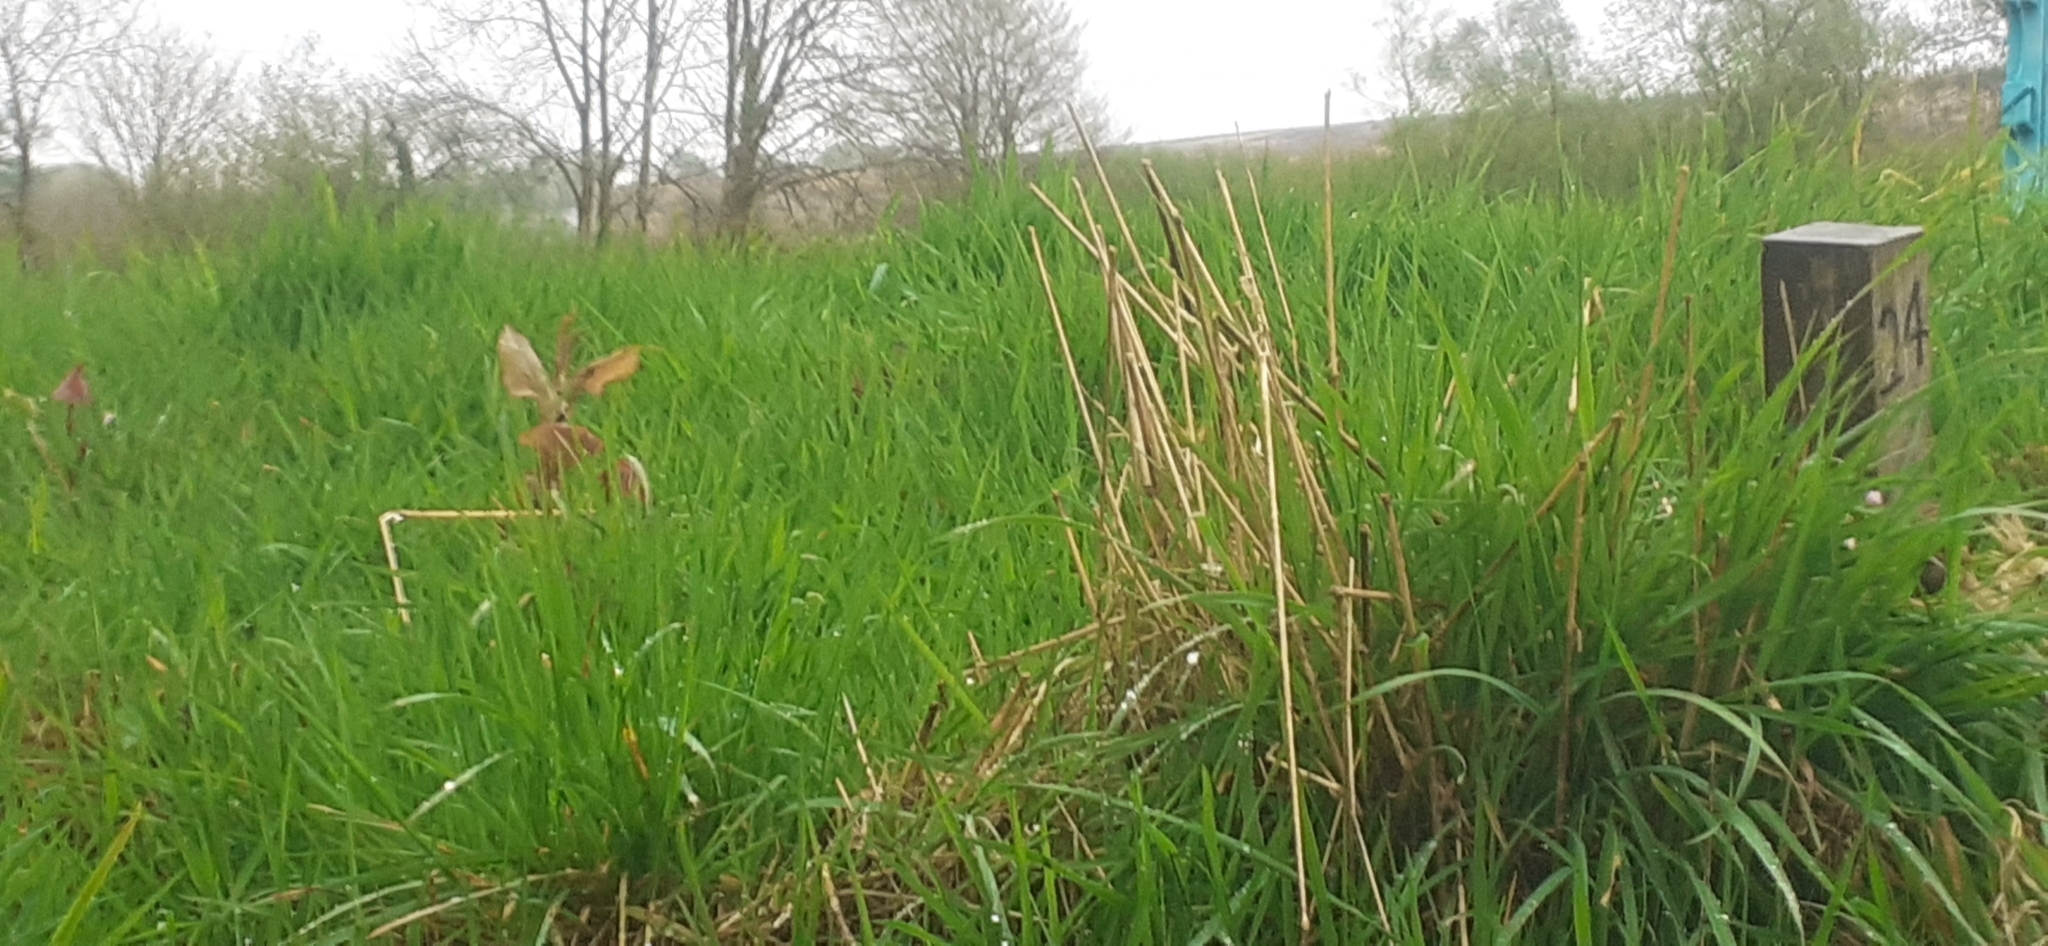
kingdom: Plantae
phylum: Tracheophyta
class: Magnoliopsida
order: Caryophyllales
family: Polygonaceae
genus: Reynoutria
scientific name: Reynoutria japonica
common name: Japanese knotweed
